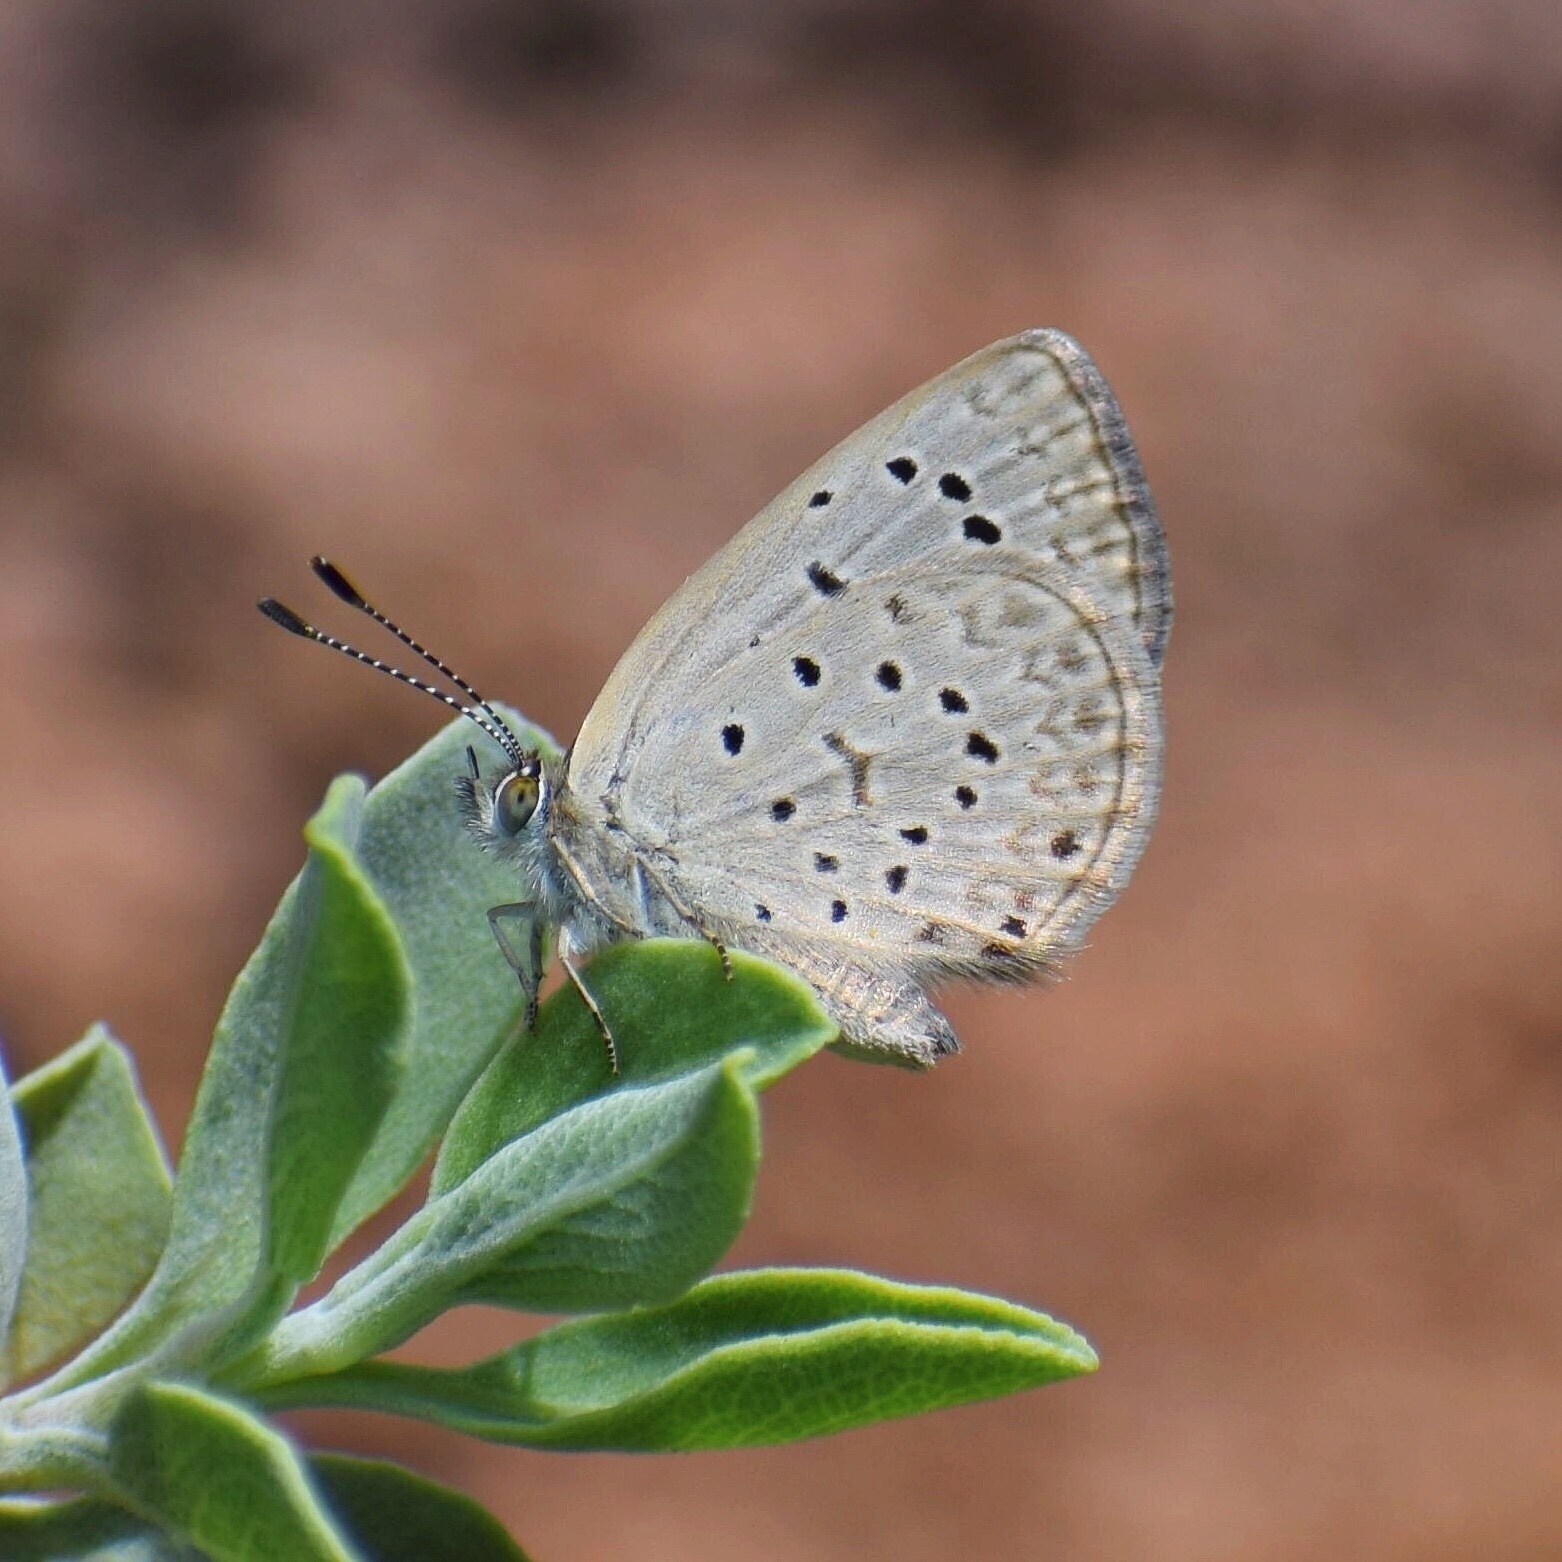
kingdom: Animalia
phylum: Arthropoda
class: Insecta
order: Lepidoptera
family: Lycaenidae
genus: Zizeeria
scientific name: Zizeeria knysna
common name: African grass blue
